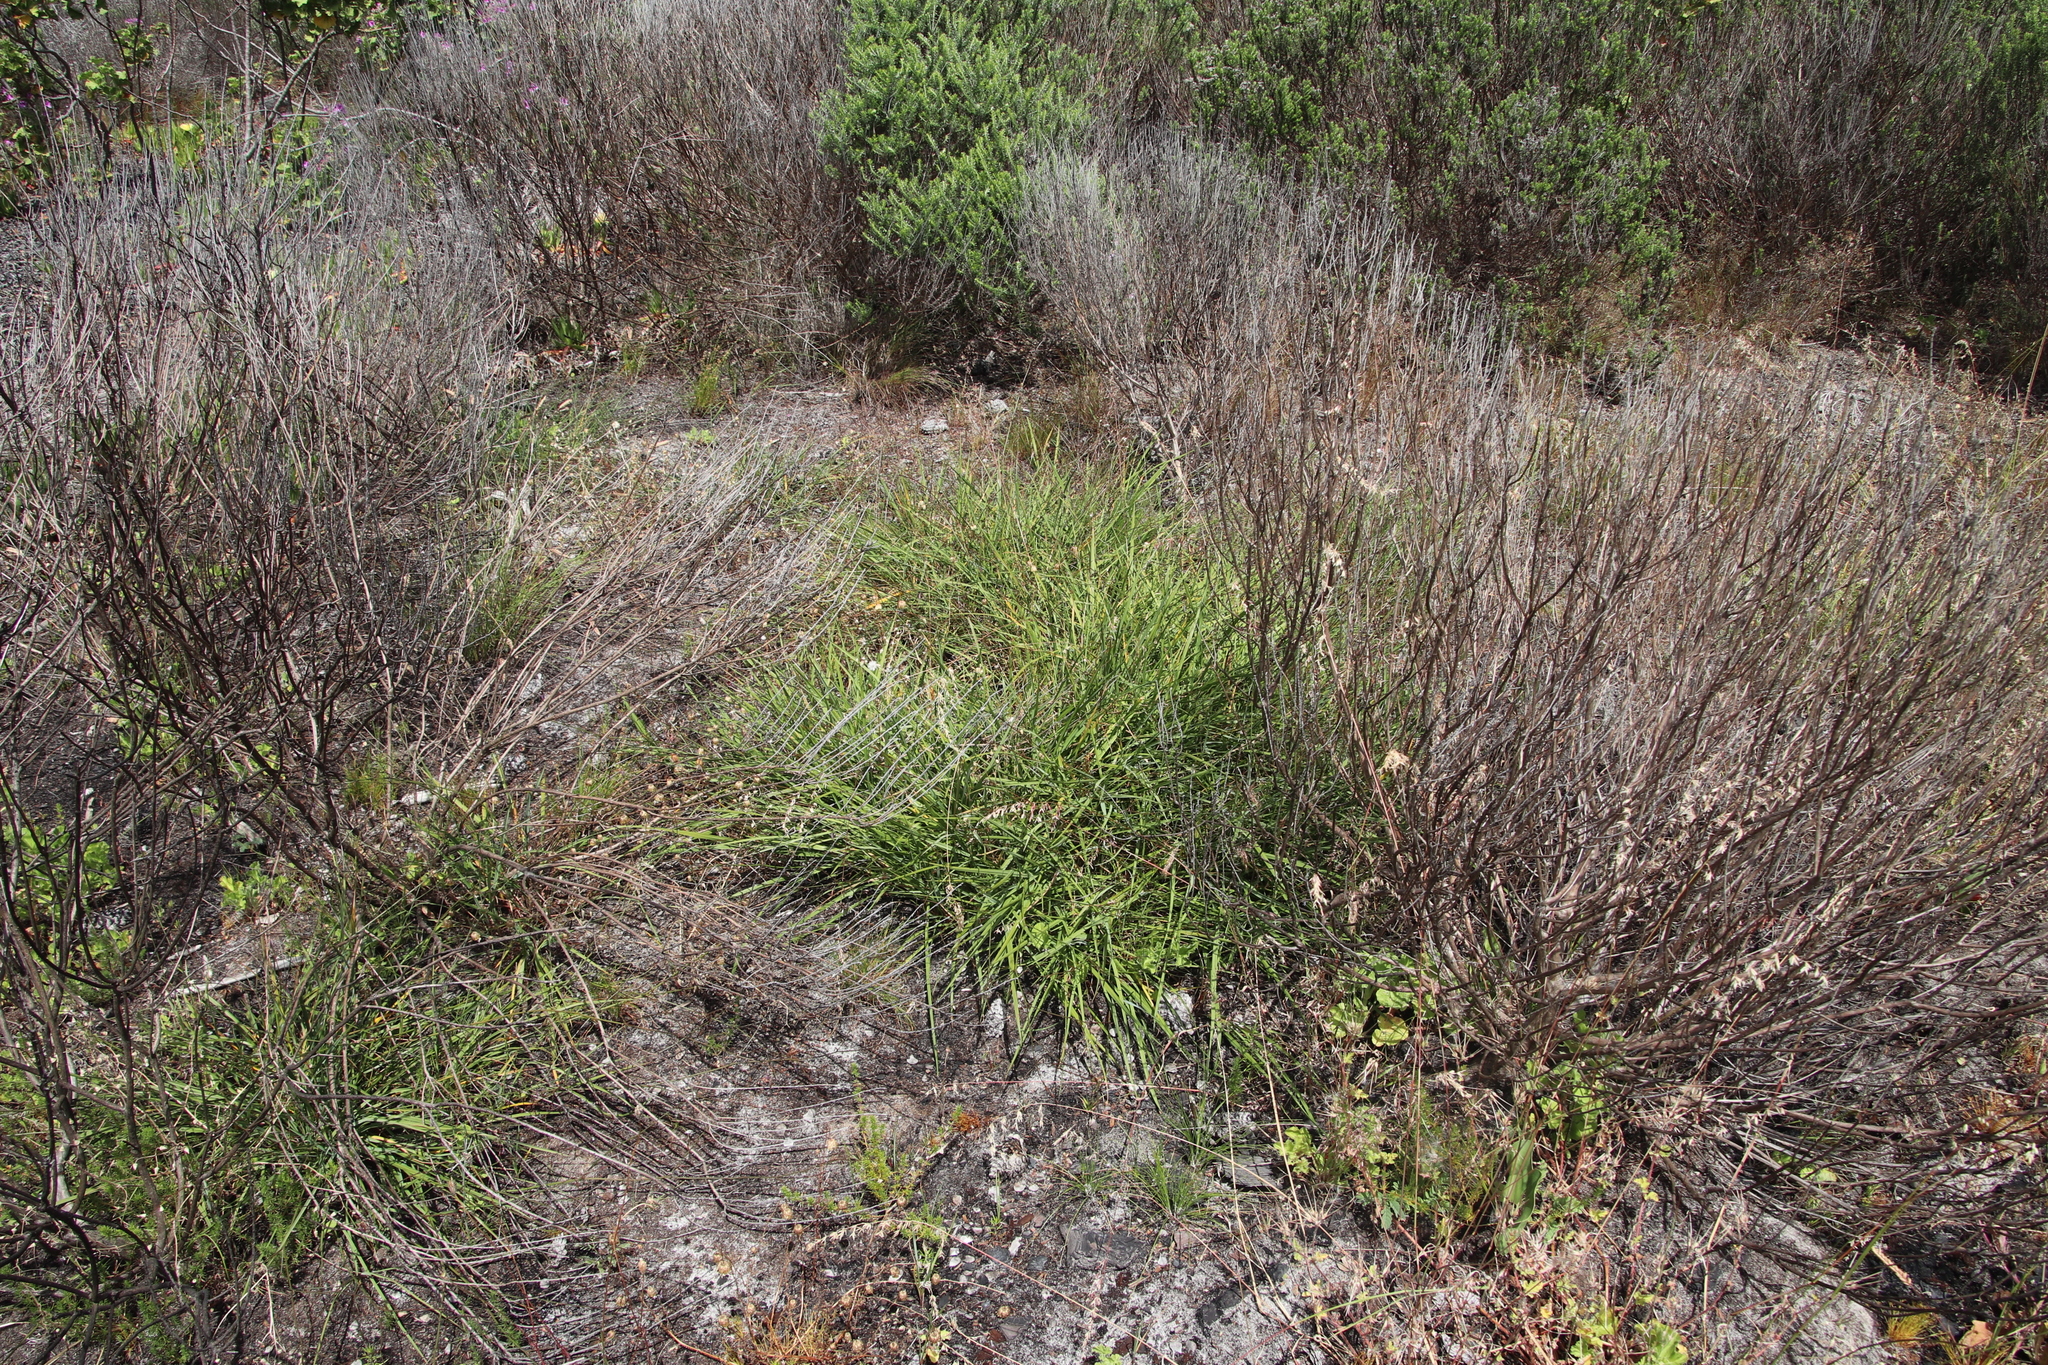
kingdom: Plantae
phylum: Tracheophyta
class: Liliopsida
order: Asparagales
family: Asphodelaceae
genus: Caesia
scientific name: Caesia contorta
